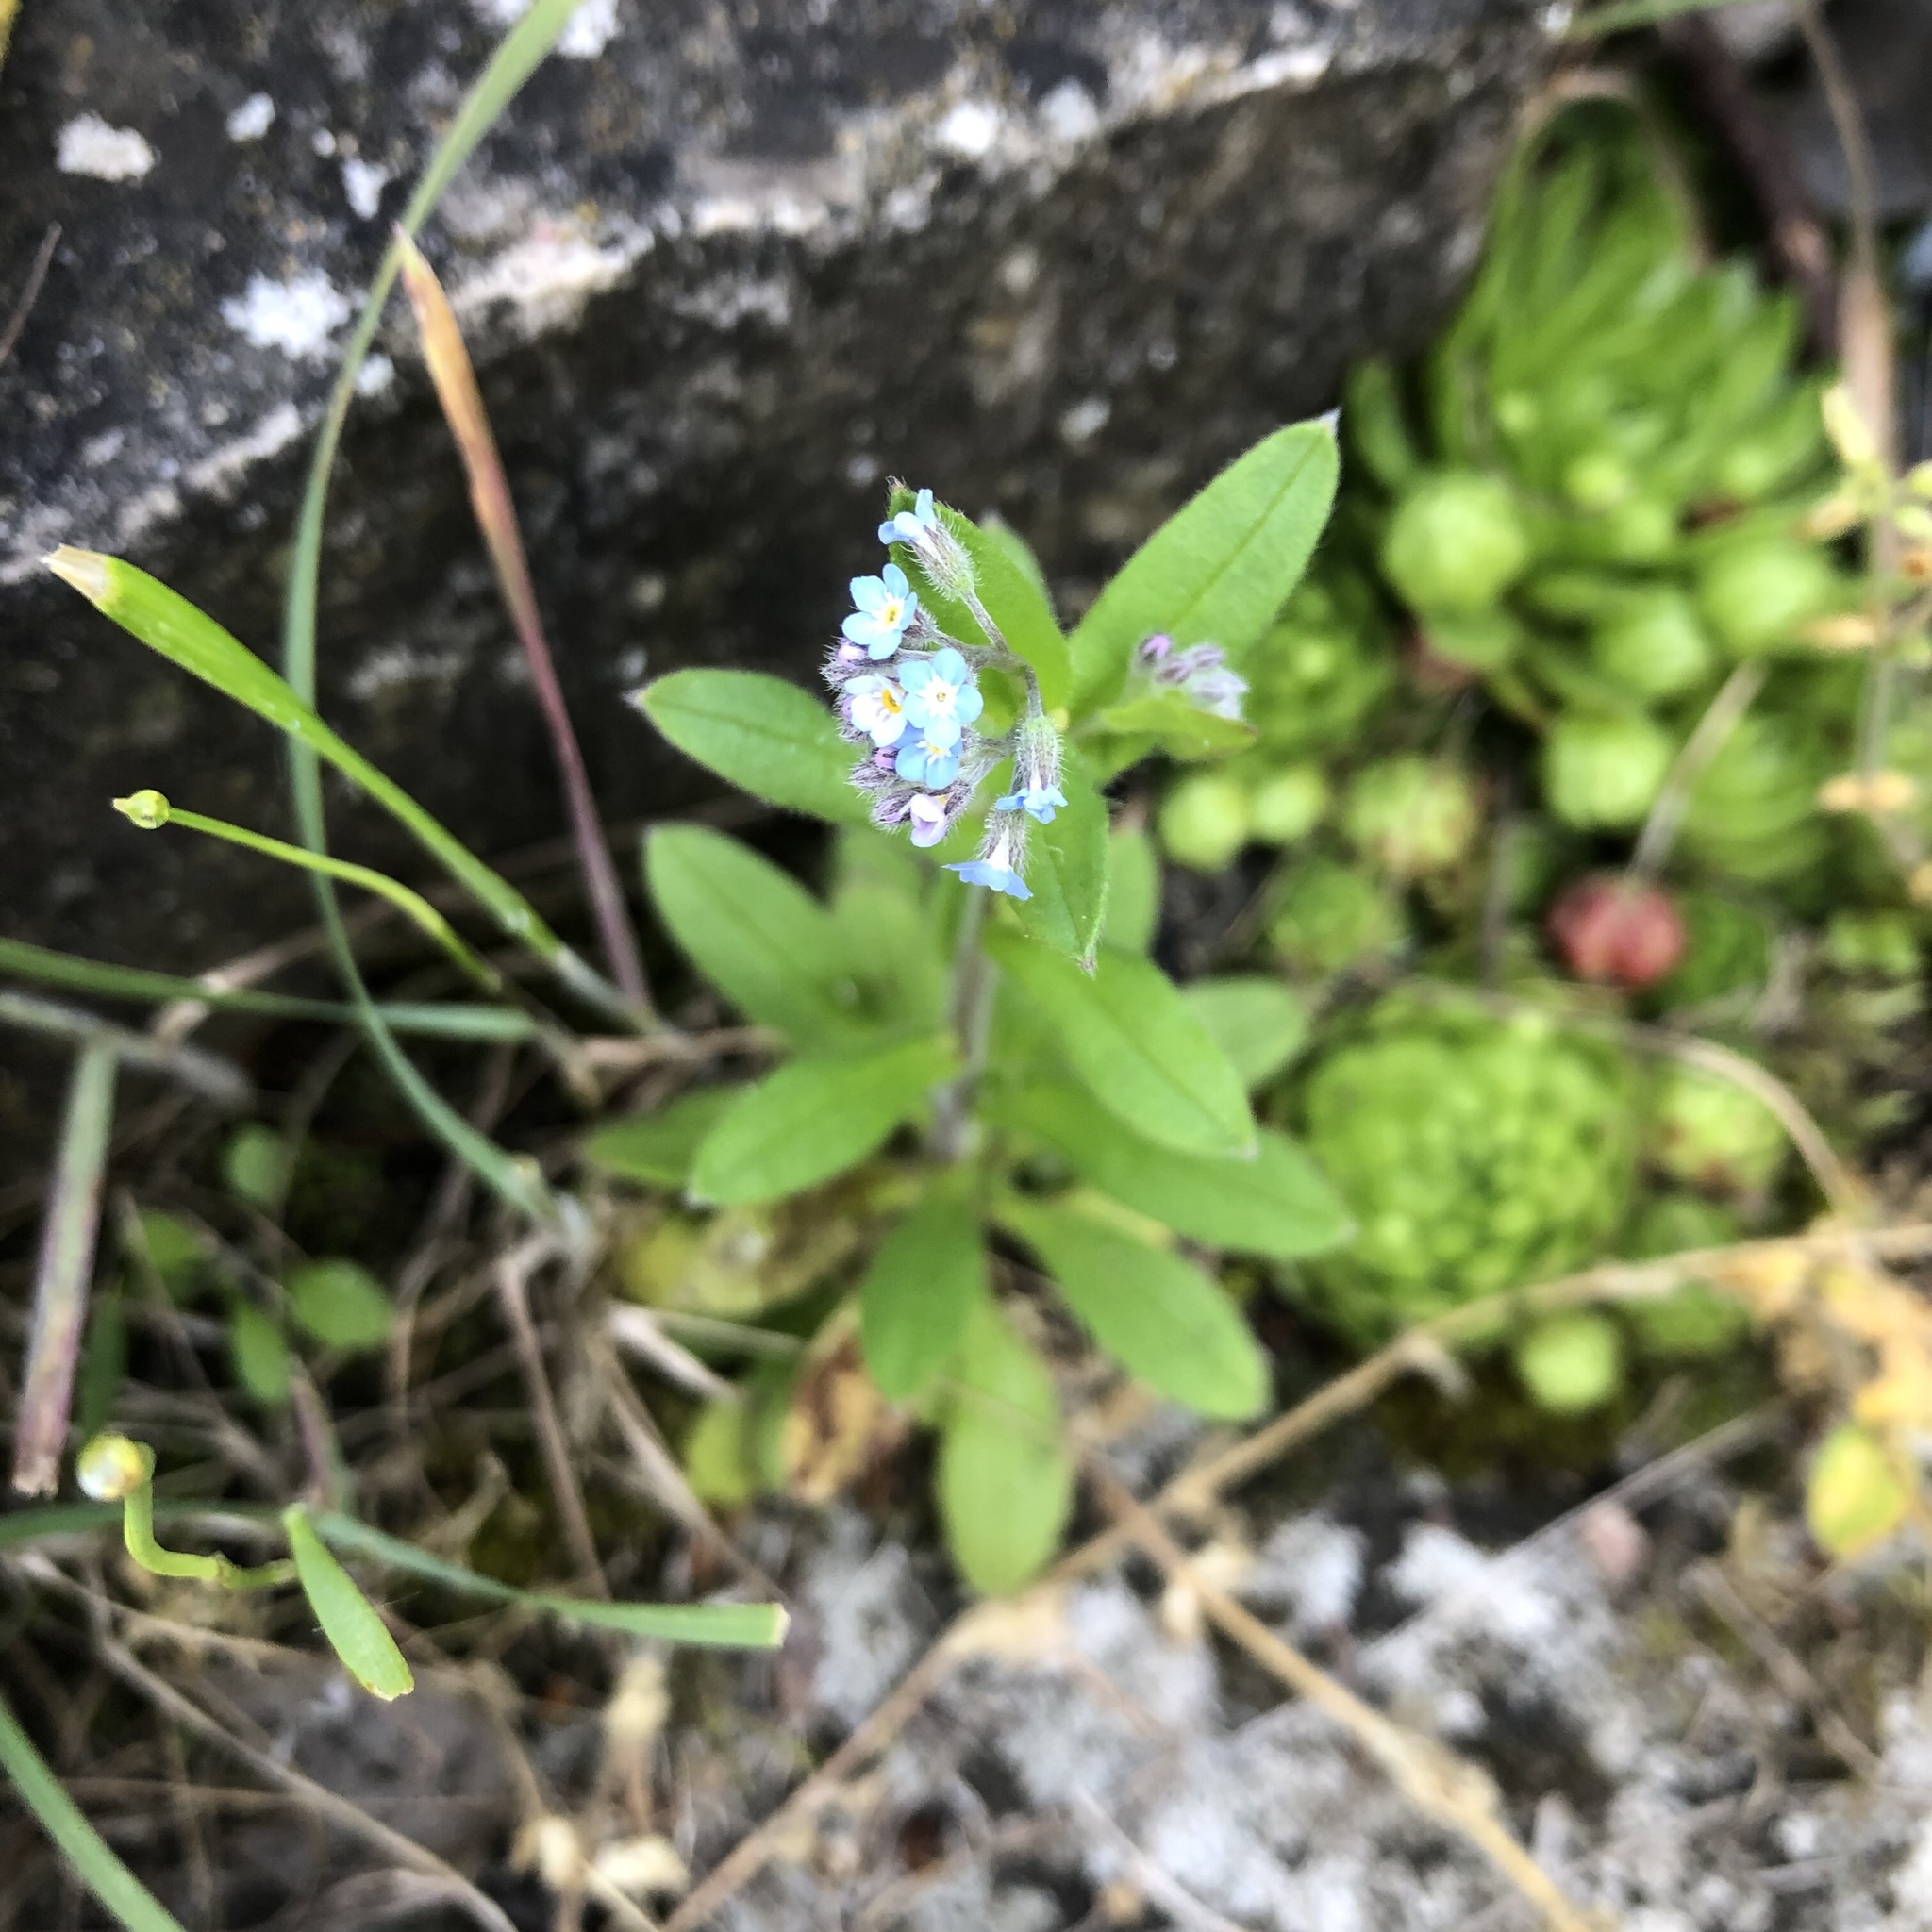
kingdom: Plantae
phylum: Tracheophyta
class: Magnoliopsida
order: Boraginales
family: Boraginaceae
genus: Myosotis
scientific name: Myosotis arvensis
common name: Field forget-me-not
